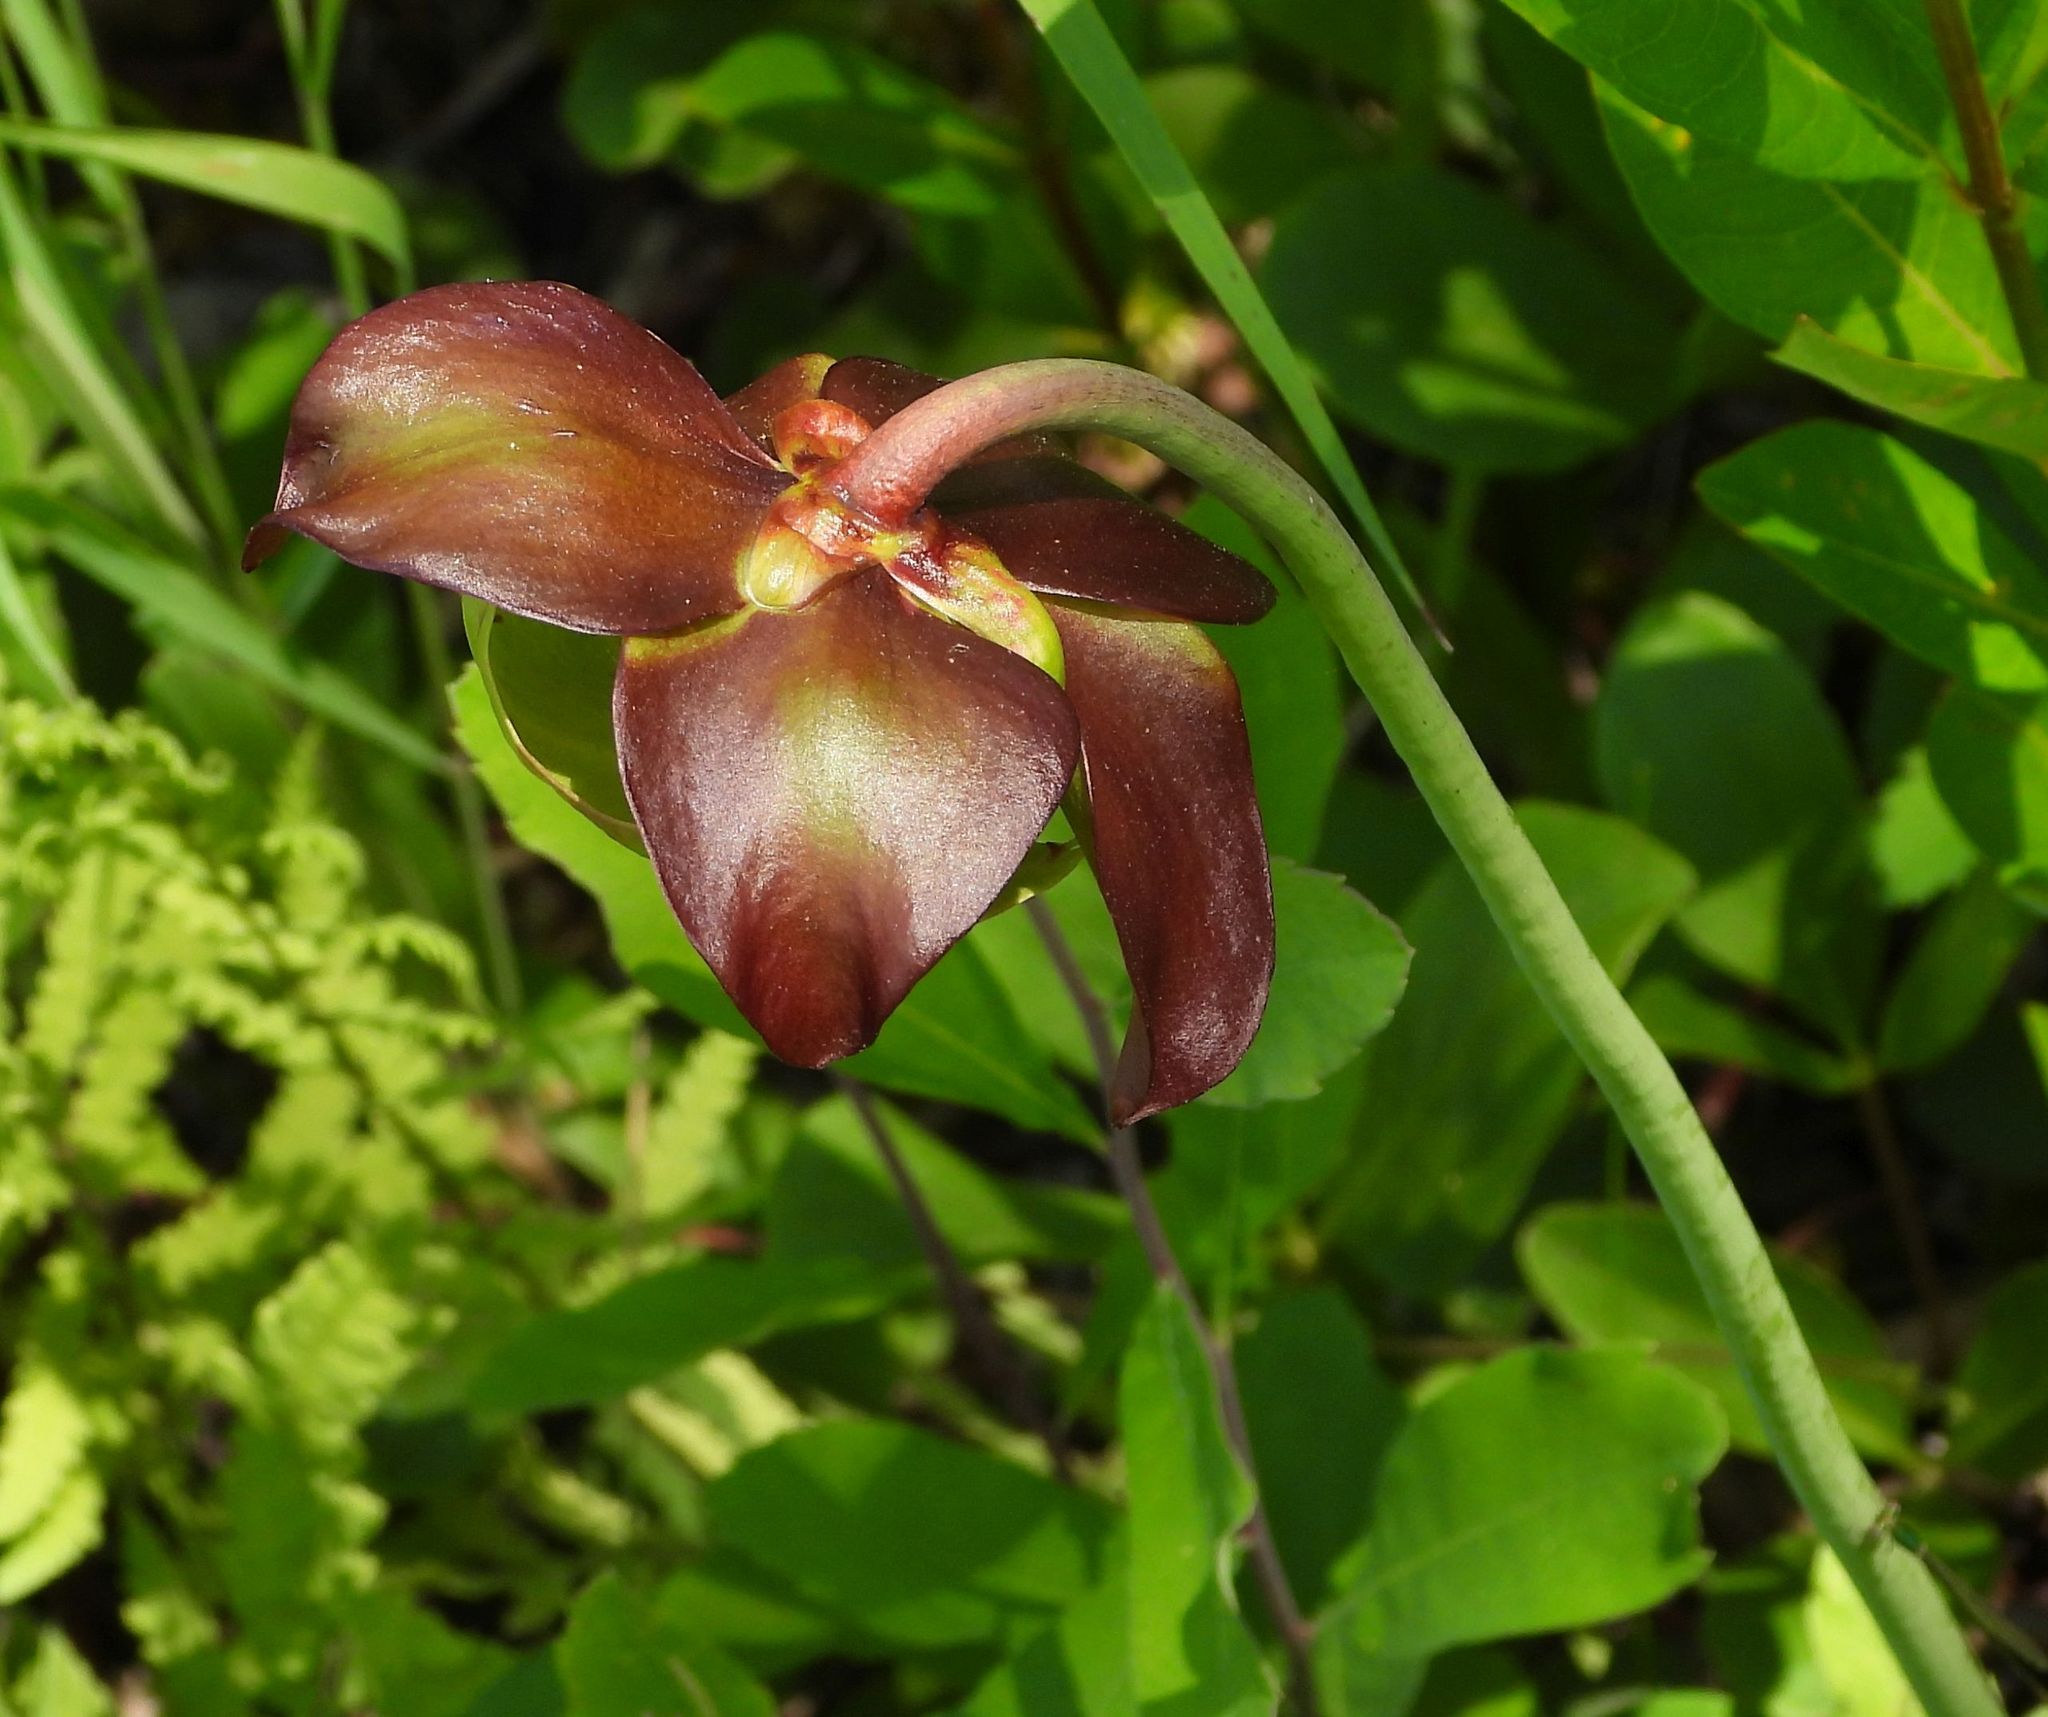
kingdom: Plantae
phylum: Tracheophyta
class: Magnoliopsida
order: Ericales
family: Sarraceniaceae
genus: Sarracenia
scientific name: Sarracenia purpurea
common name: Pitcherplant
